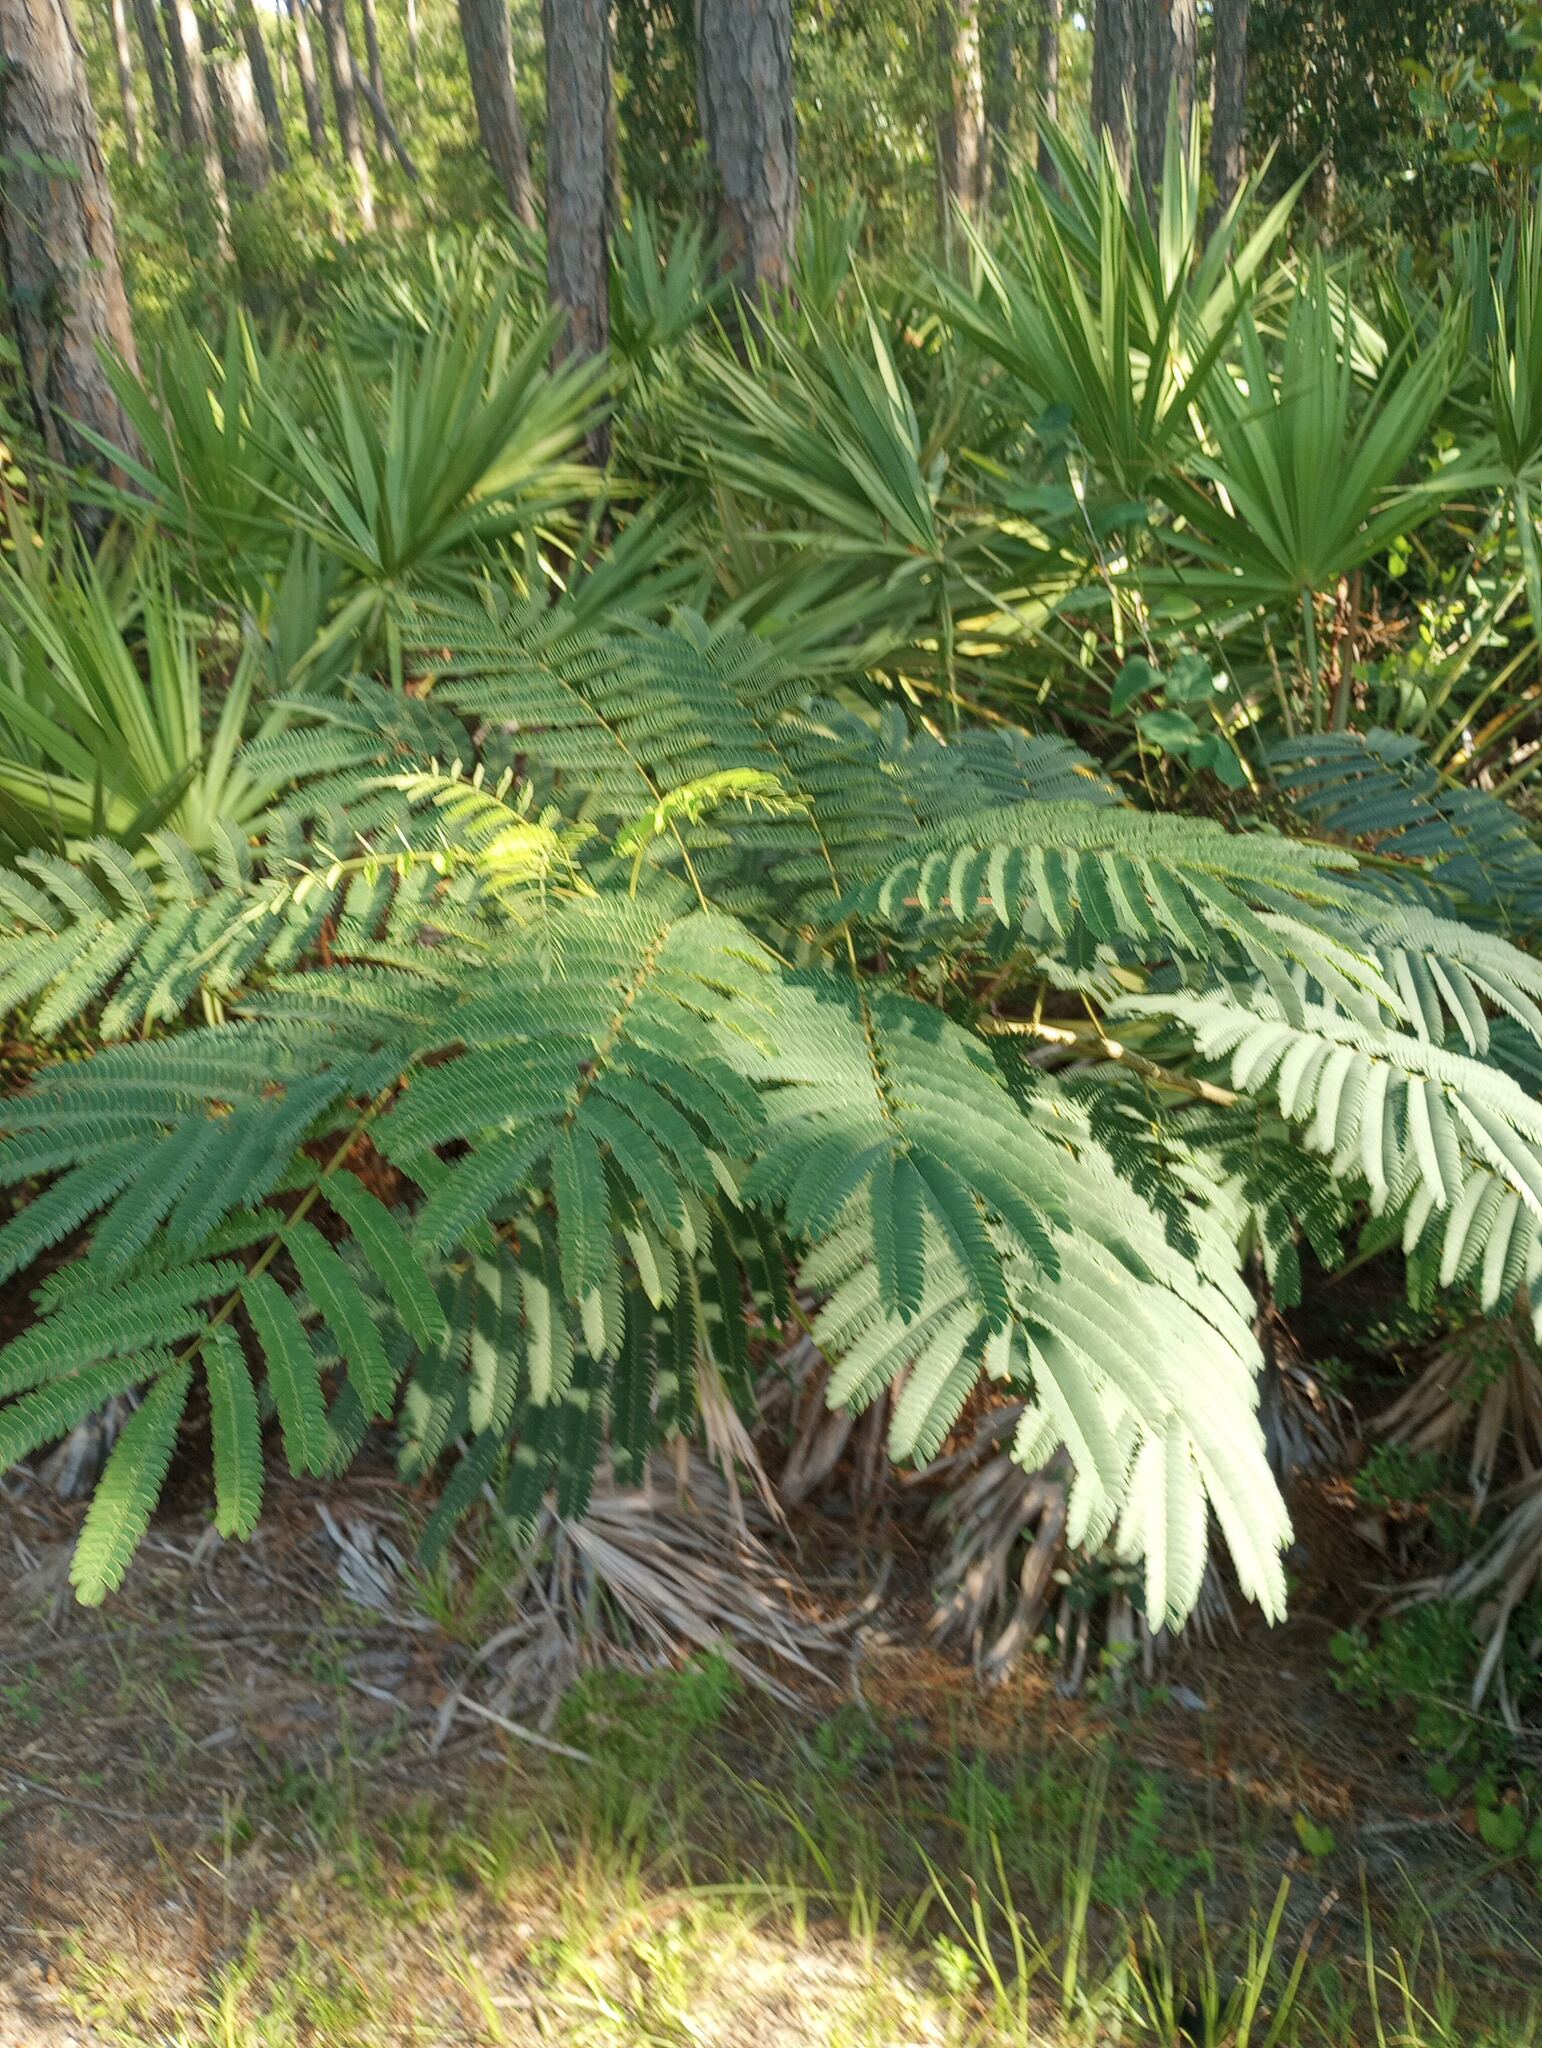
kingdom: Plantae
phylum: Tracheophyta
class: Magnoliopsida
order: Fabales
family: Fabaceae
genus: Albizia
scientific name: Albizia julibrissin
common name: Silktree
